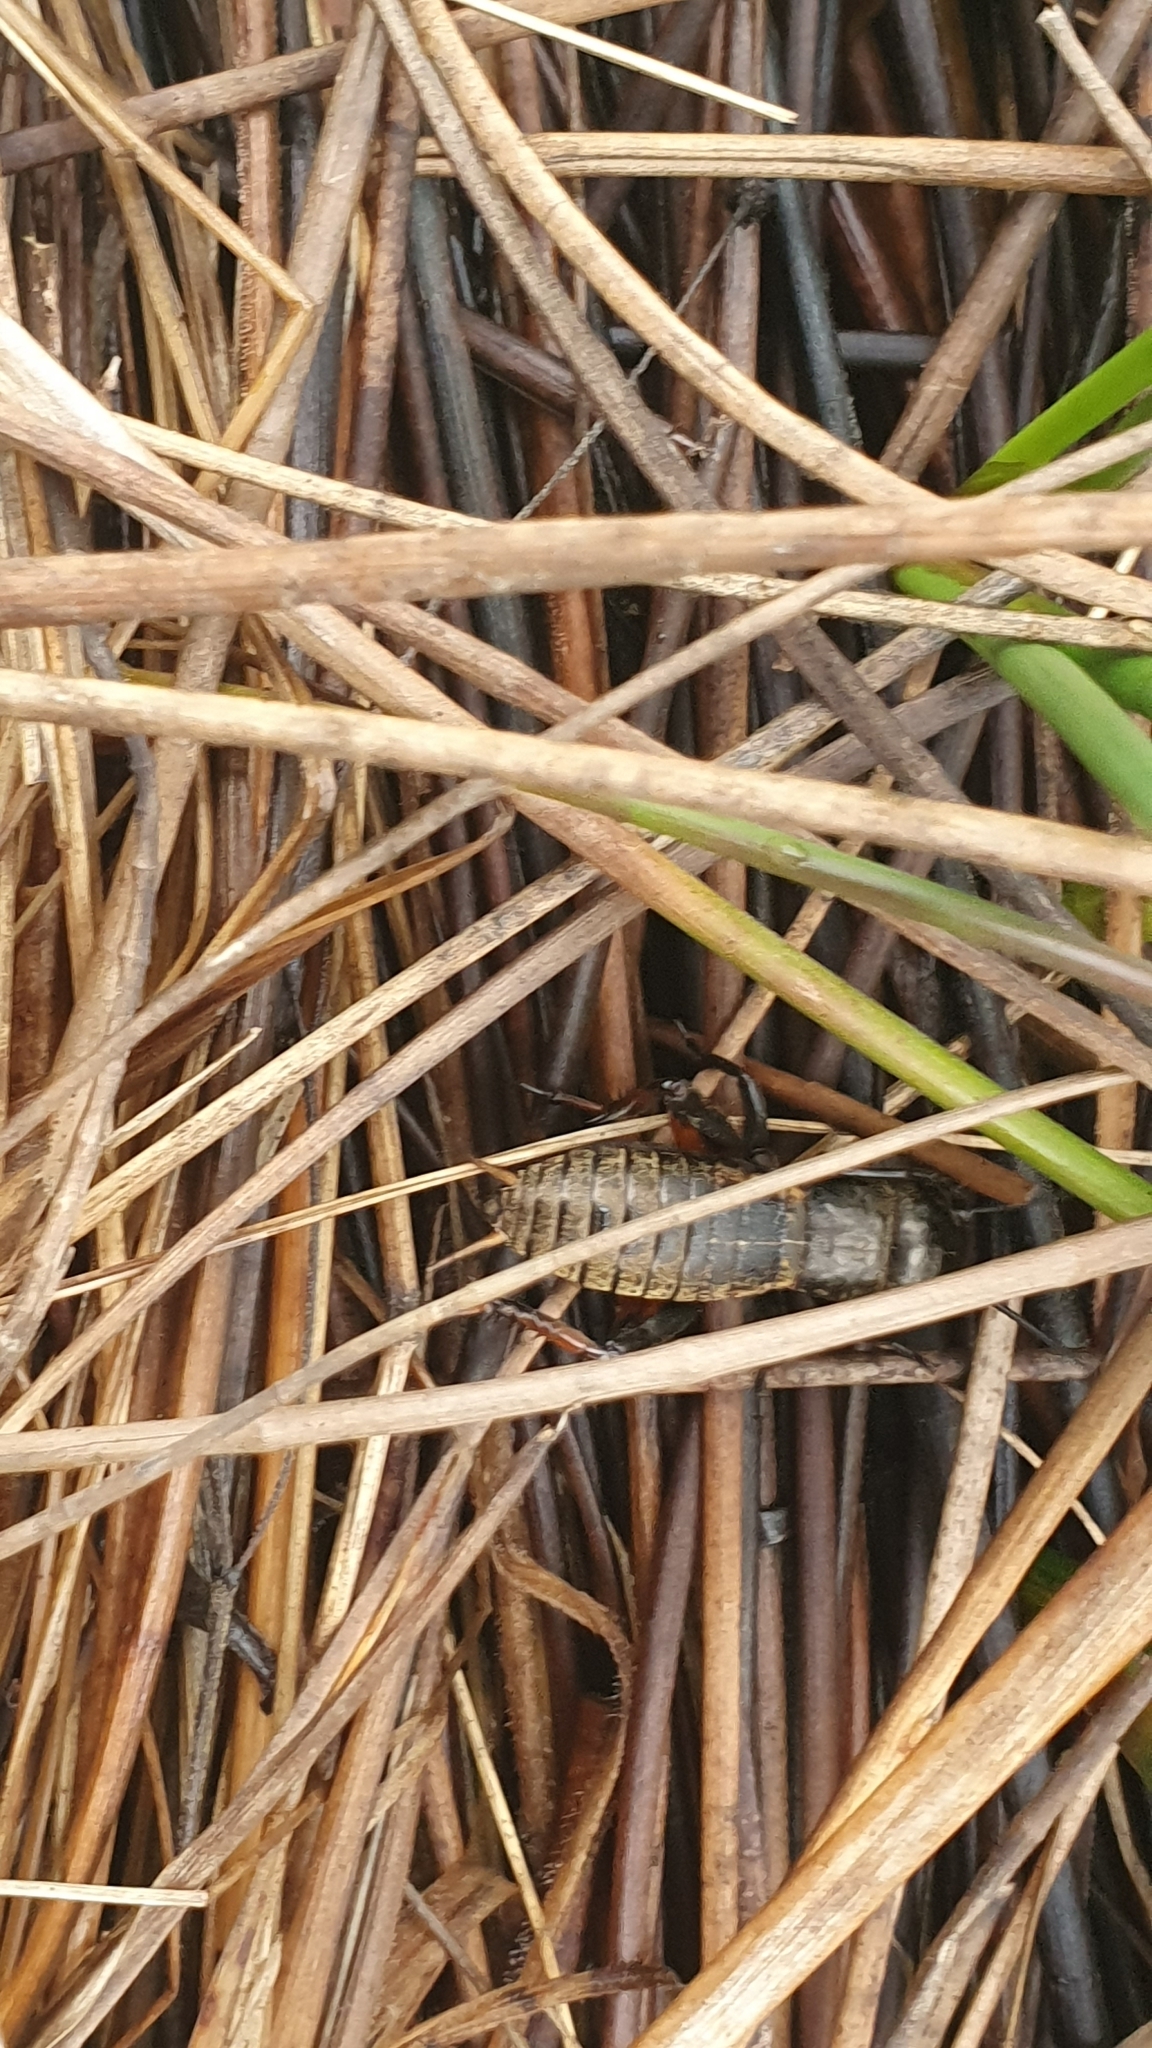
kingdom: Animalia
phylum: Arthropoda
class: Insecta
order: Orthoptera
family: Gryllidae
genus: Gryllus
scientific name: Gryllus campestris
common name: Field cricket
